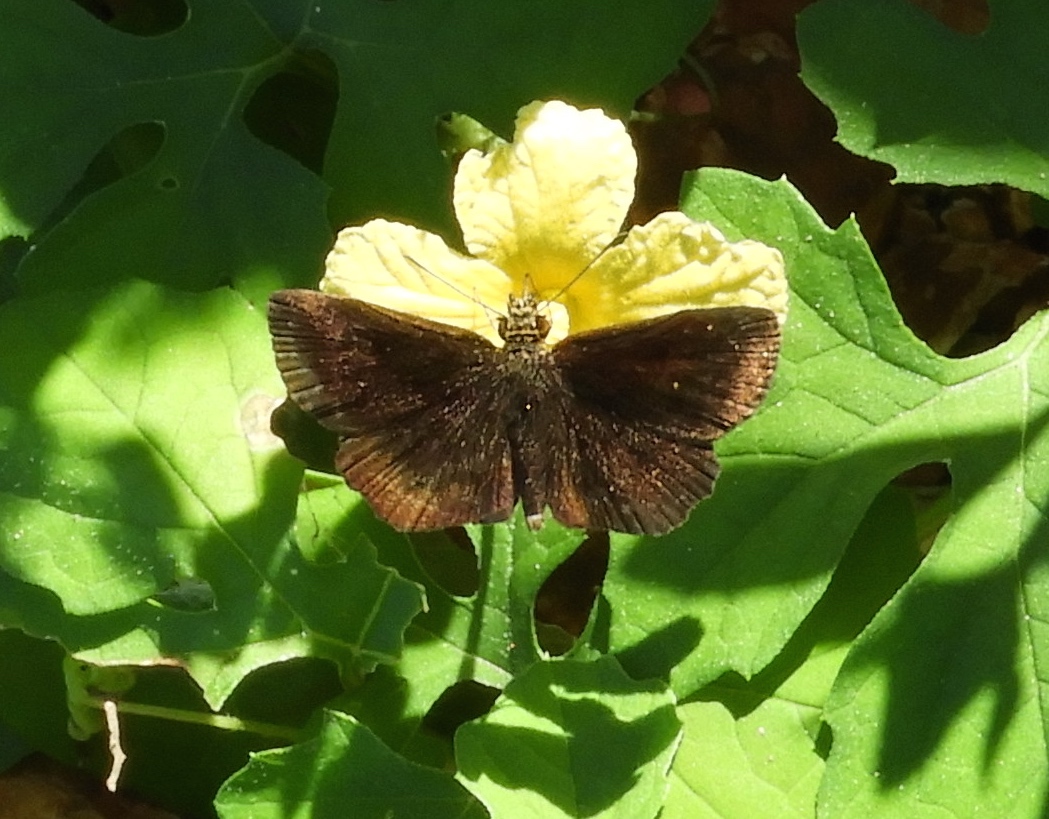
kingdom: Animalia
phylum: Arthropoda
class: Insecta
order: Lepidoptera
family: Hesperiidae
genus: Pyrginae
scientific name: Pyrginae
